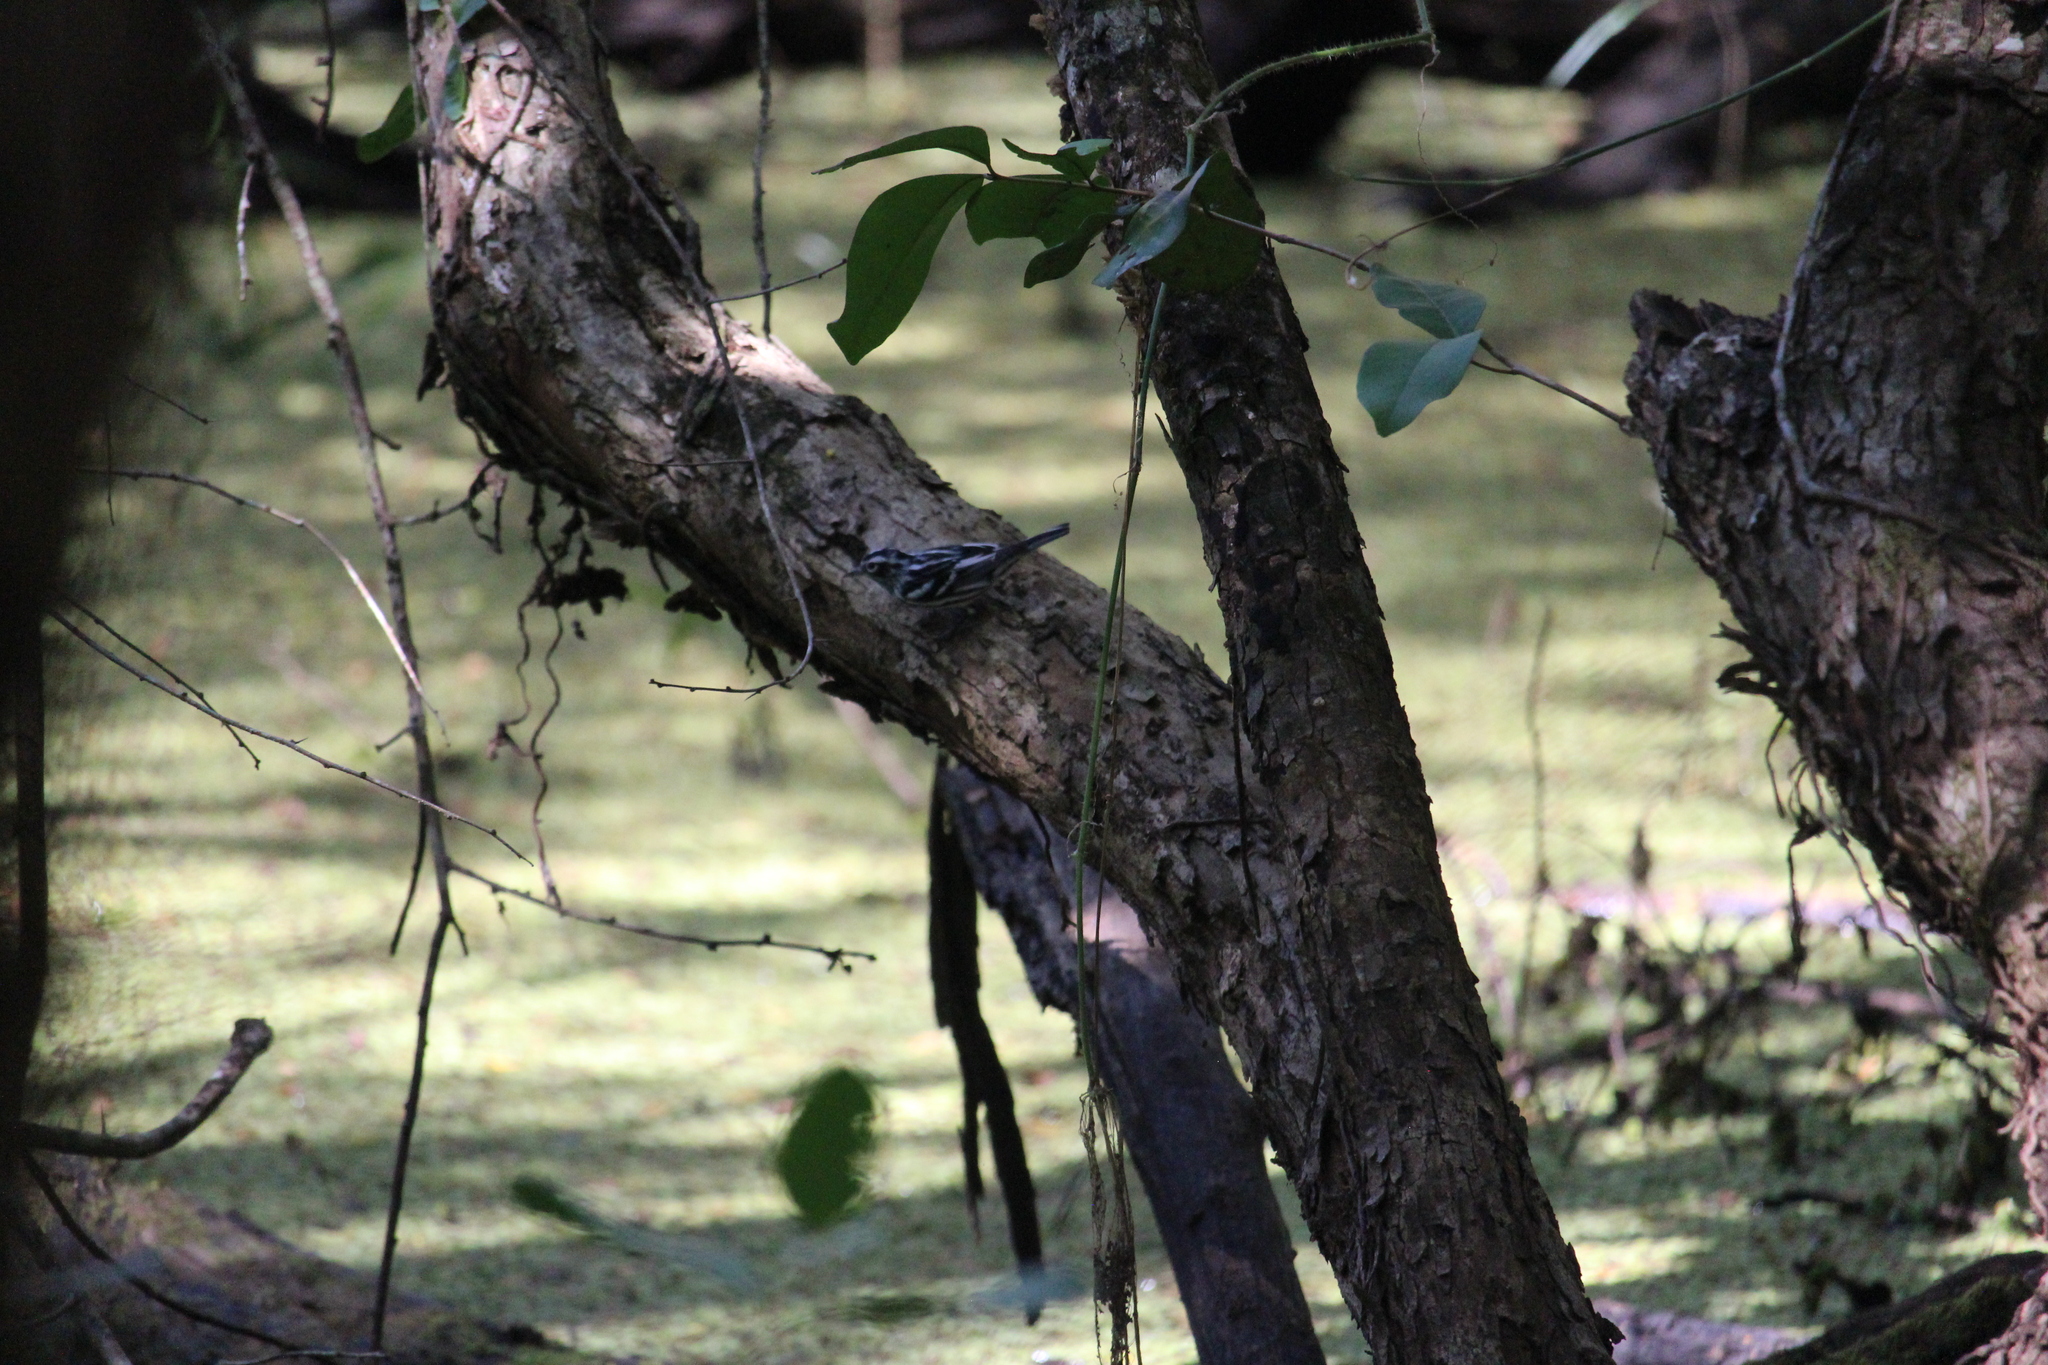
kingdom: Animalia
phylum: Chordata
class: Aves
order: Passeriformes
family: Parulidae
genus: Mniotilta
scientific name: Mniotilta varia
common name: Black-and-white warbler
